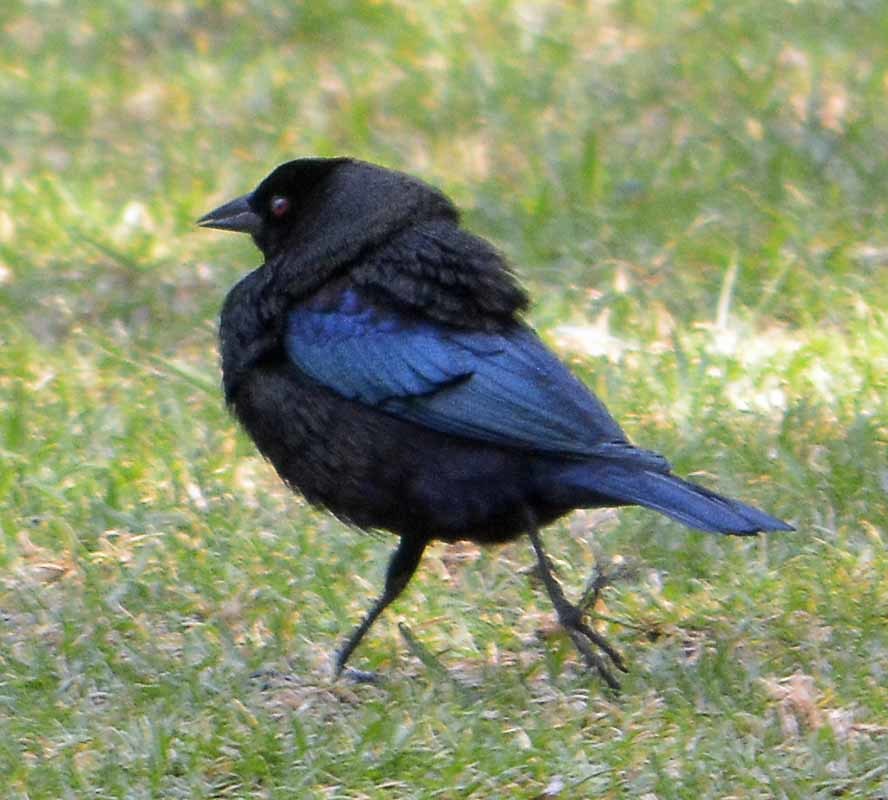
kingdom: Animalia
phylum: Chordata
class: Aves
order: Passeriformes
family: Icteridae
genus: Molothrus
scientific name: Molothrus aeneus
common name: Bronzed cowbird
